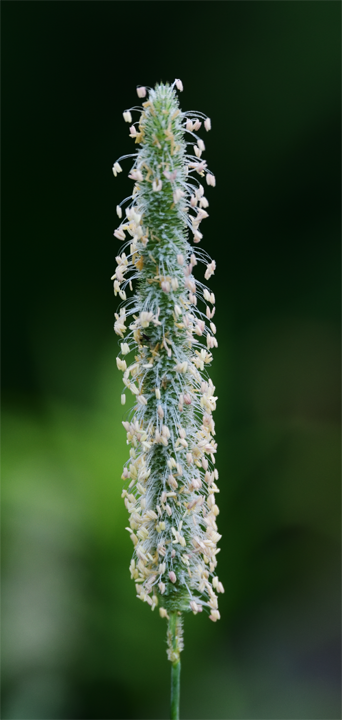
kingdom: Plantae
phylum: Tracheophyta
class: Liliopsida
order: Poales
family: Poaceae
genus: Phleum
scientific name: Phleum pratense
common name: Timothy grass
